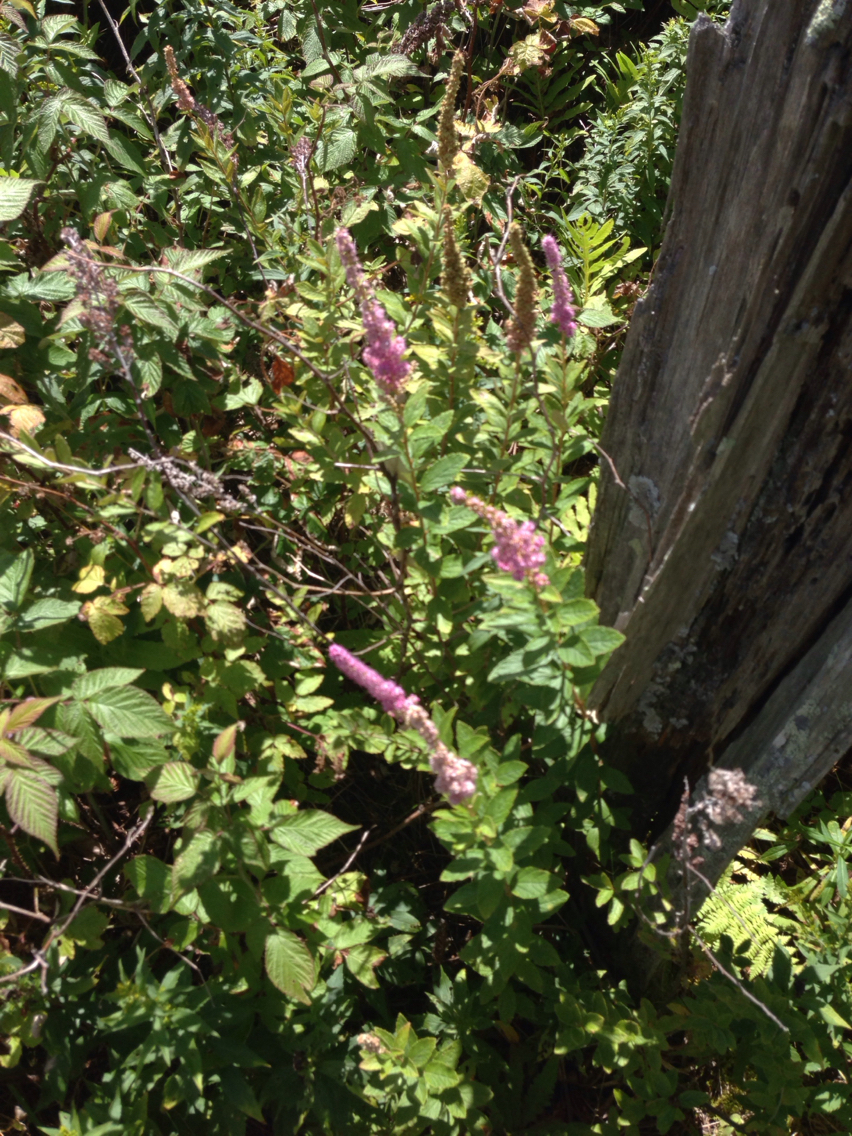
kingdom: Plantae
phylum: Tracheophyta
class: Magnoliopsida
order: Rosales
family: Rosaceae
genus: Spiraea
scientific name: Spiraea tomentosa
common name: Hardhack
